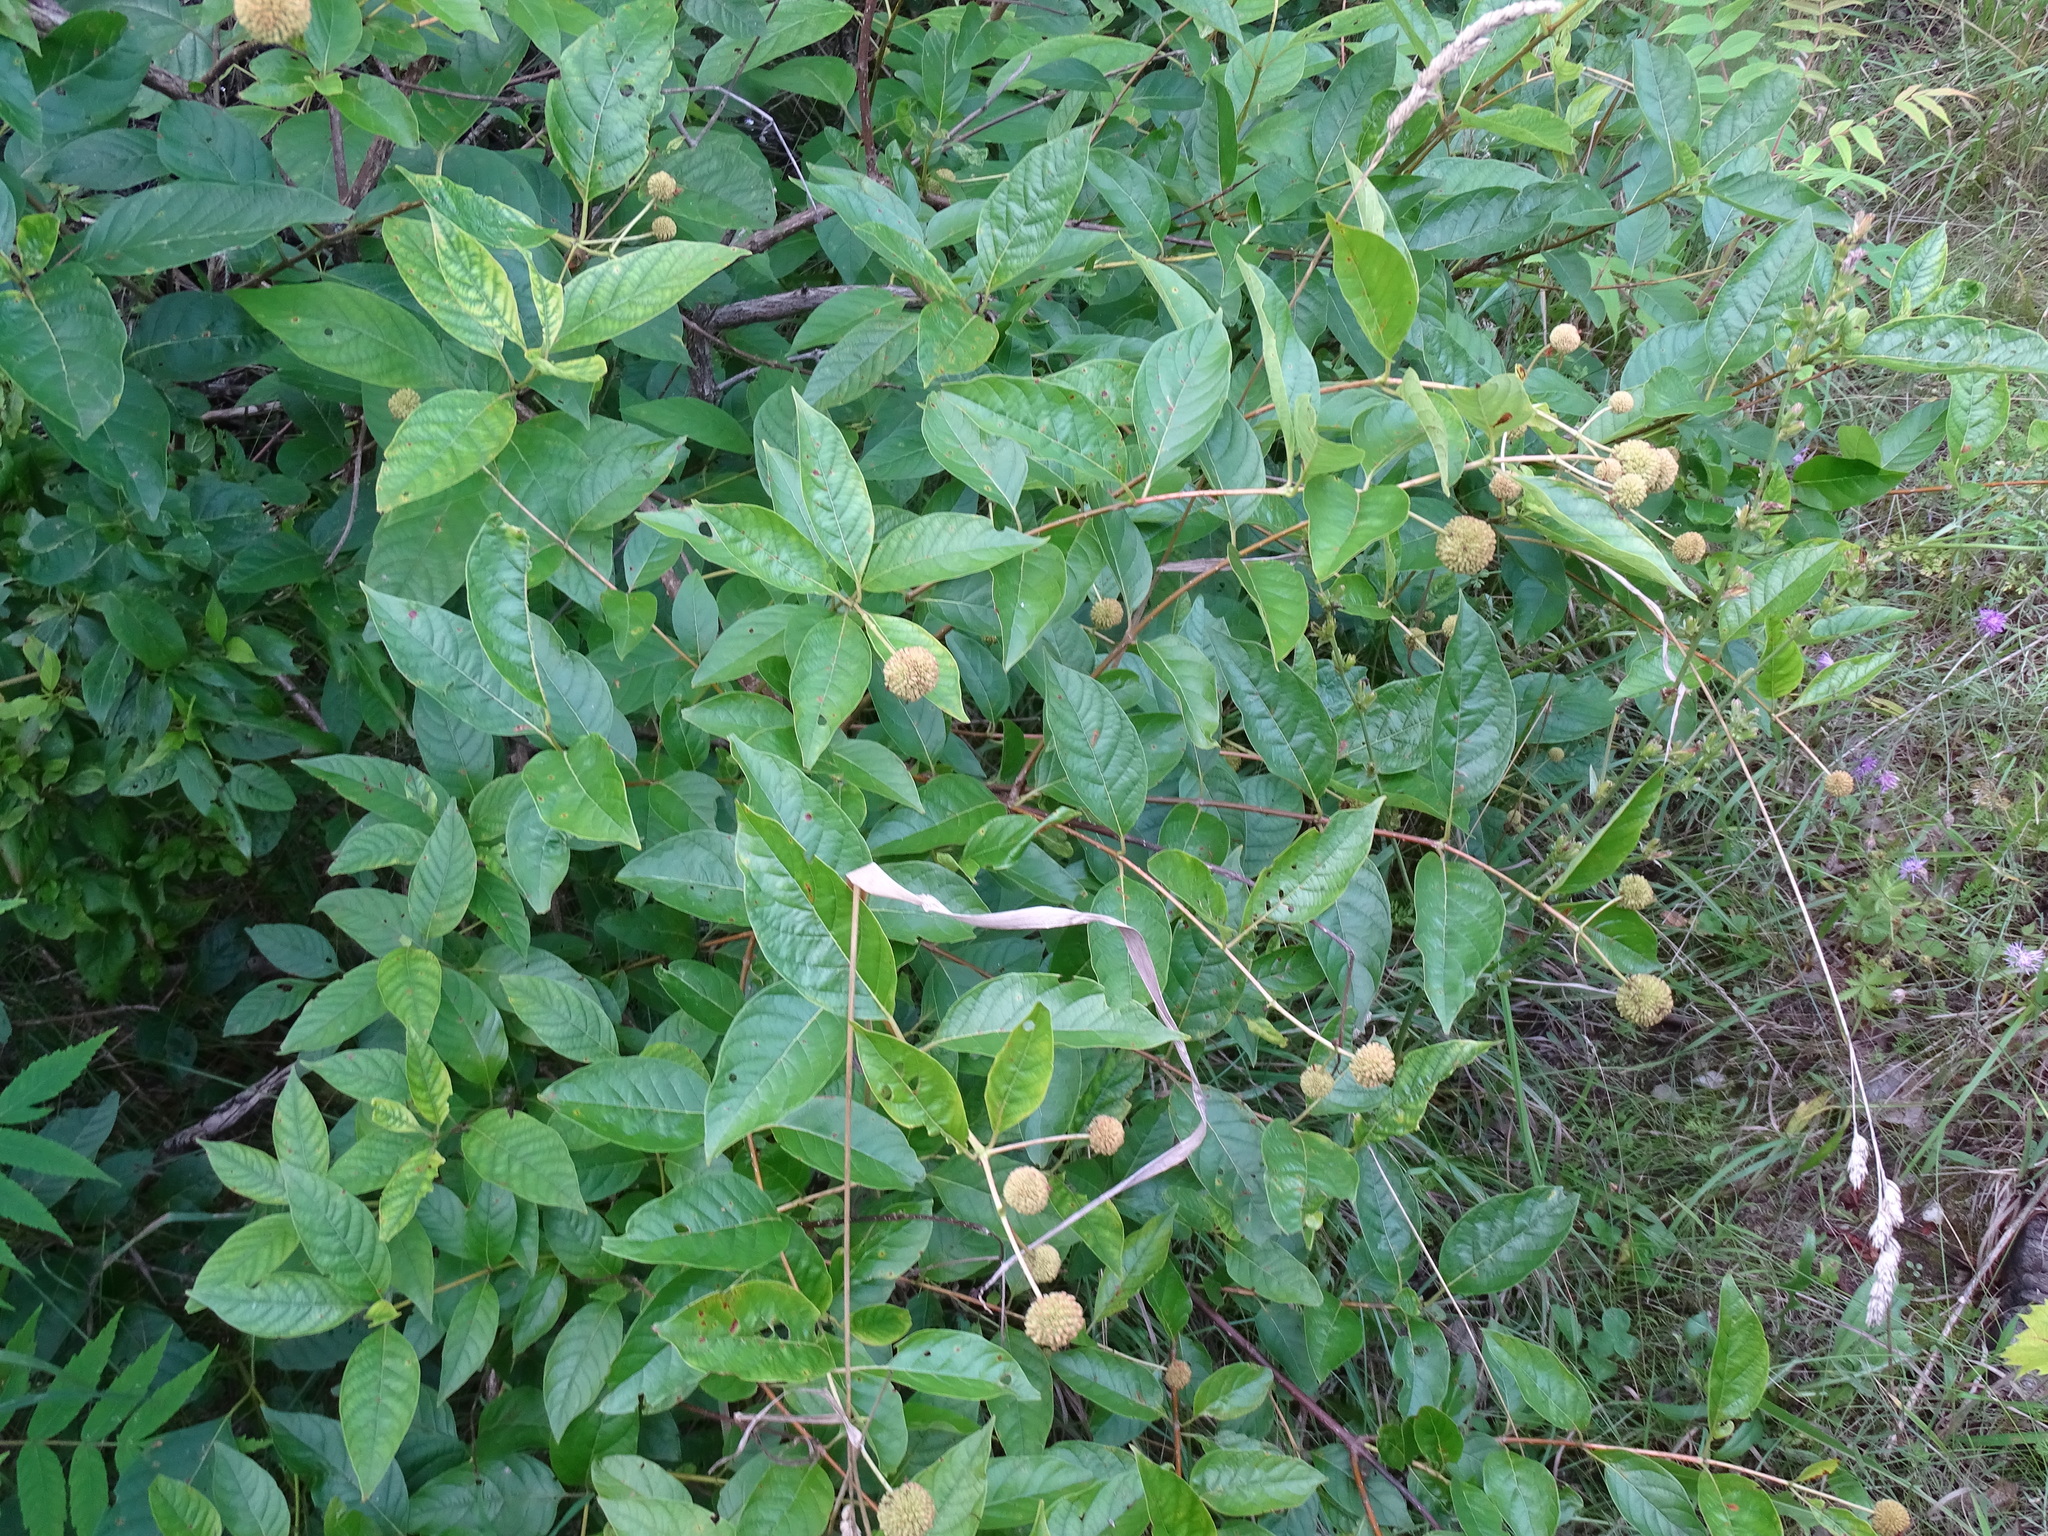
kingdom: Plantae
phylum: Tracheophyta
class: Magnoliopsida
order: Gentianales
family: Rubiaceae
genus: Cephalanthus
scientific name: Cephalanthus occidentalis
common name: Button-willow
